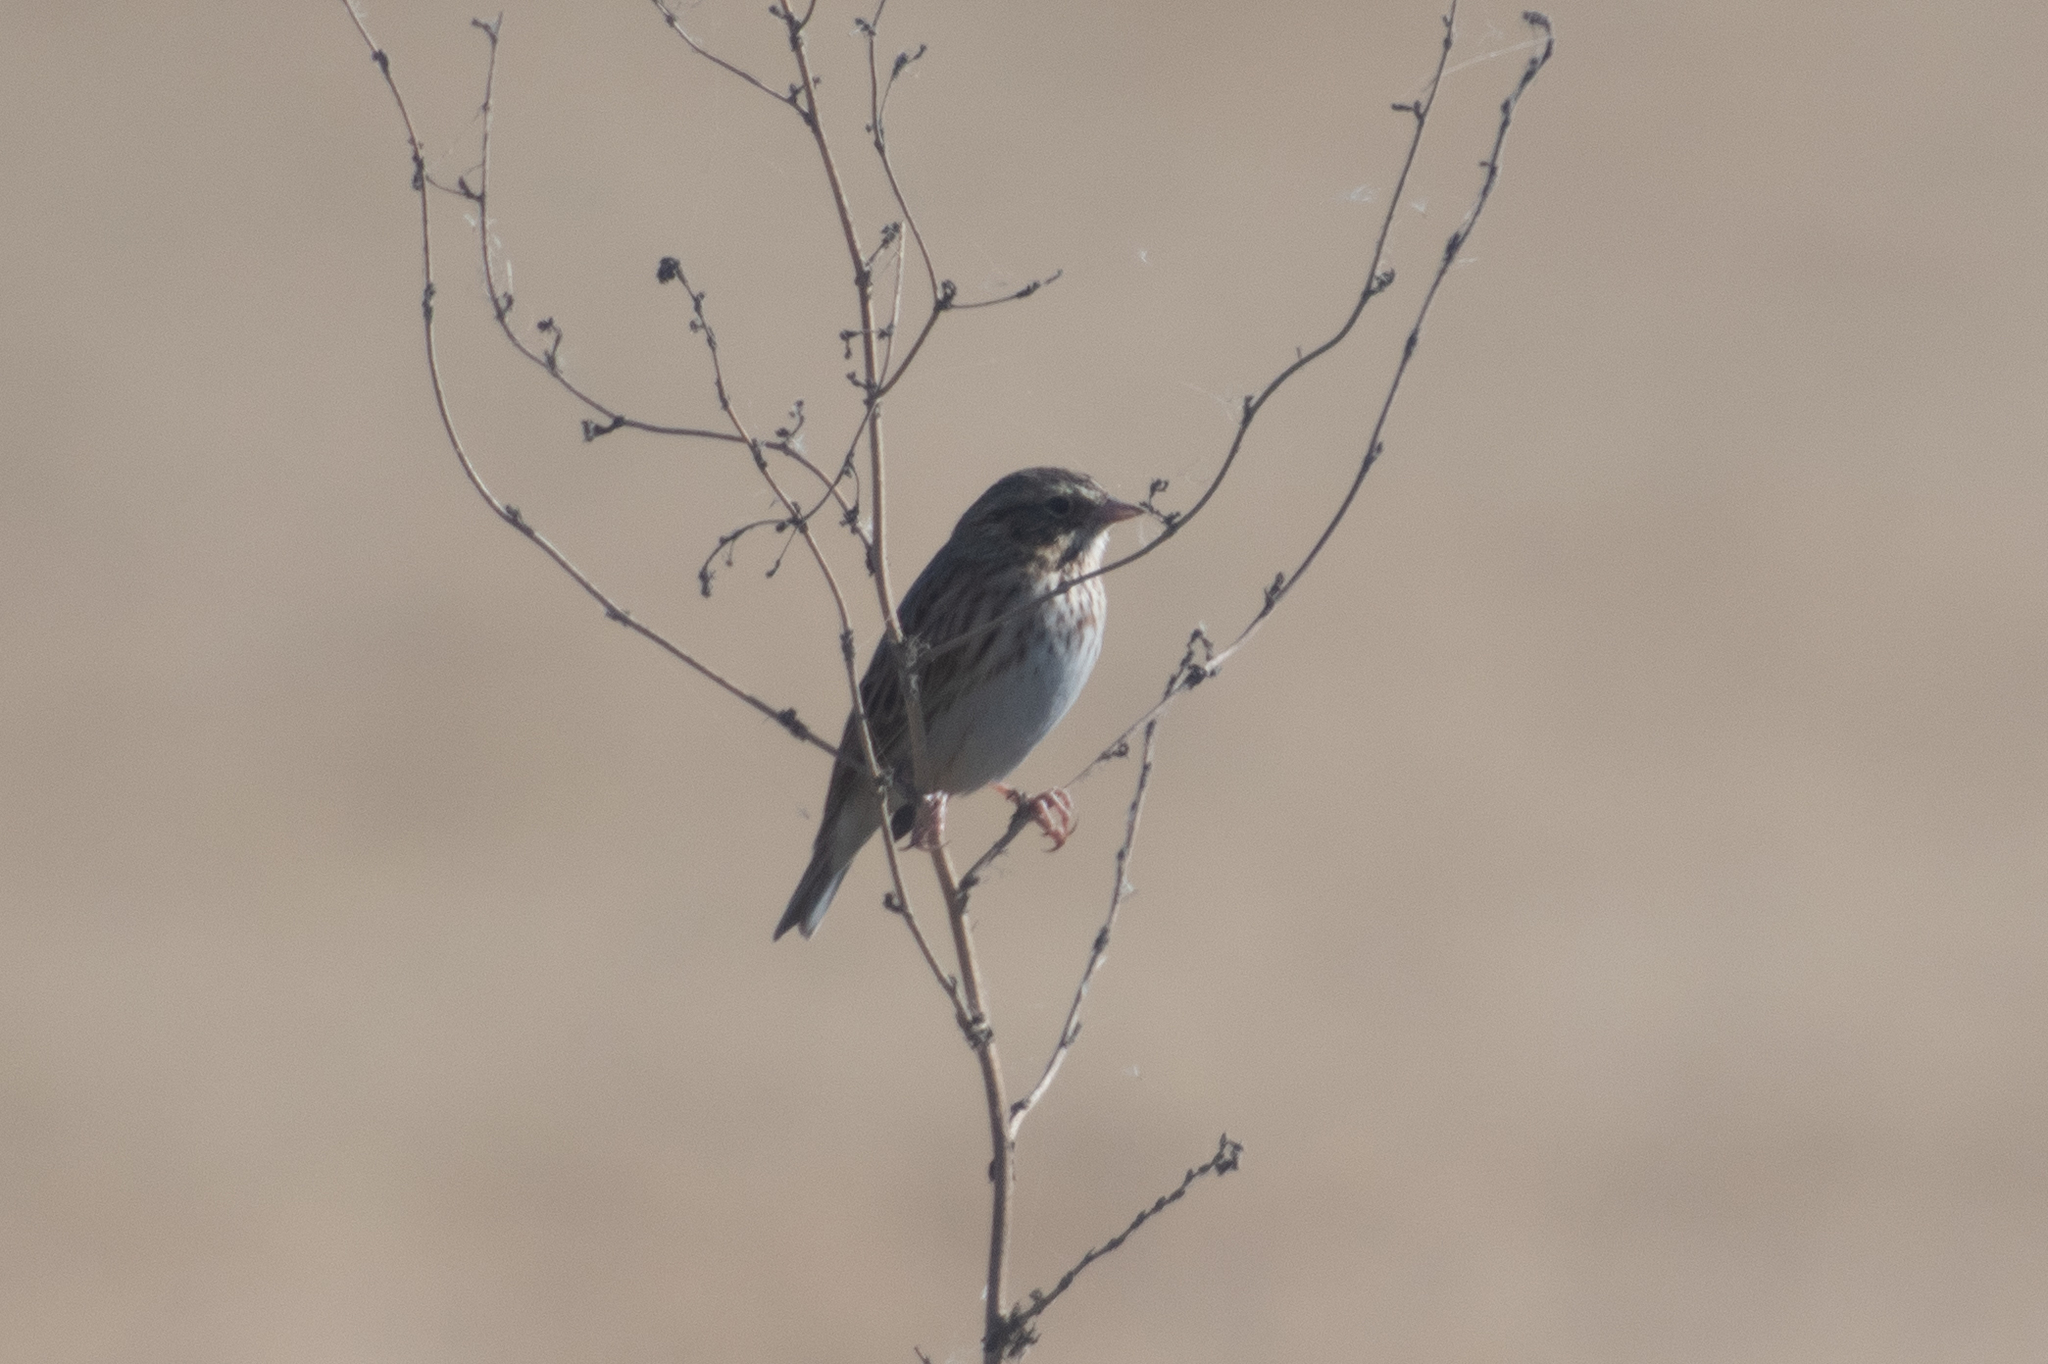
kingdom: Animalia
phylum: Chordata
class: Aves
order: Passeriformes
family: Passerellidae
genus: Passerculus
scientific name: Passerculus sandwichensis
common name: Savannah sparrow
